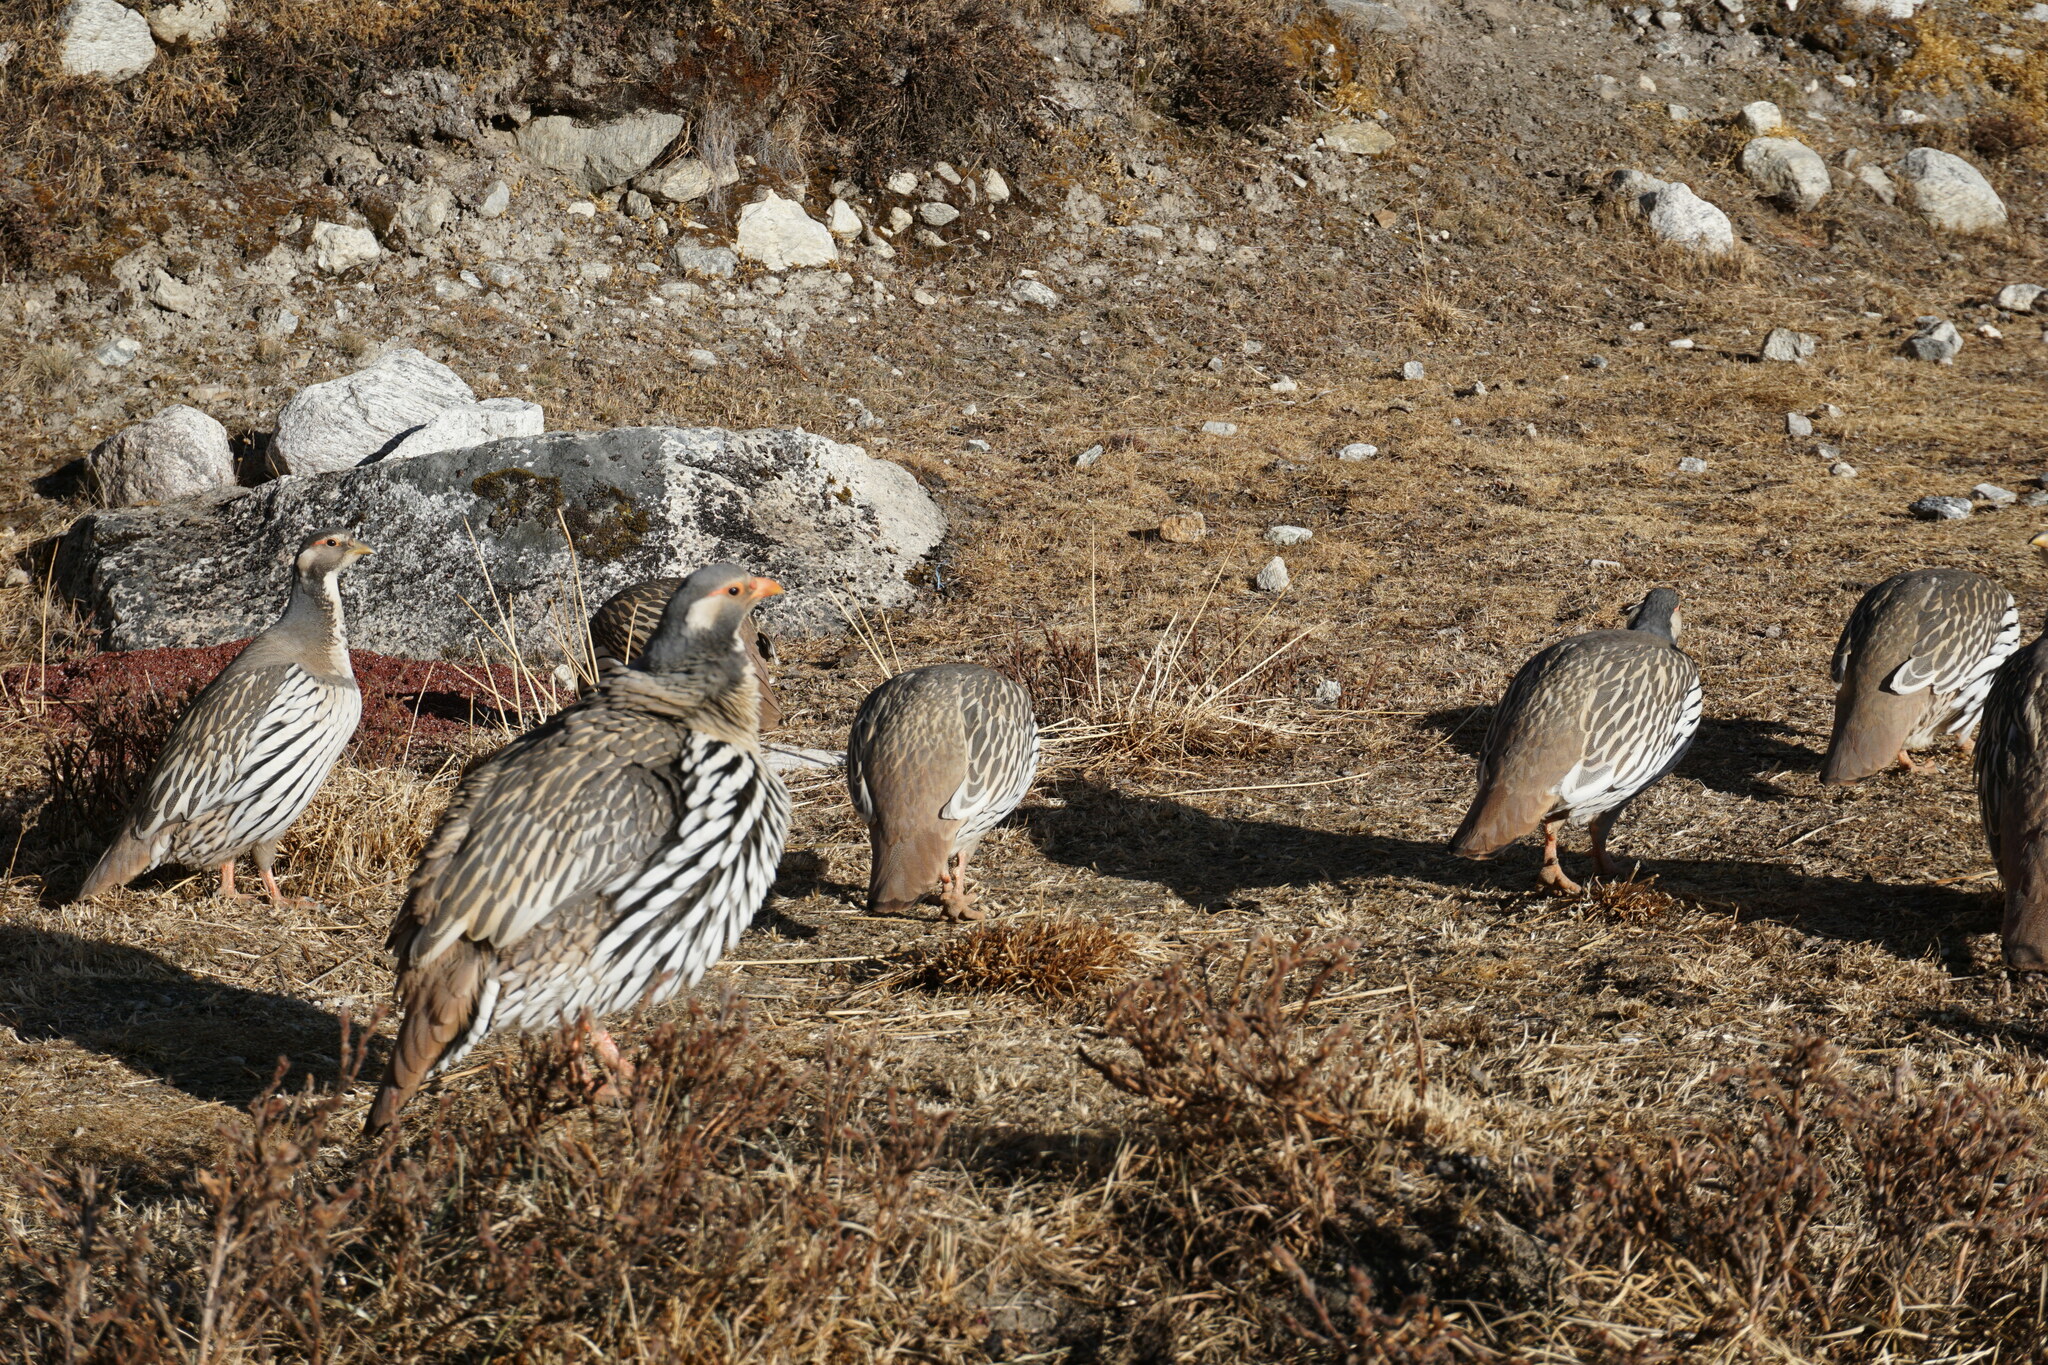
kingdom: Animalia
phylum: Chordata
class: Aves
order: Galliformes
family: Phasianidae
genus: Tetraogallus
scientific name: Tetraogallus tibetanus
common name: Tibetan snowcock
